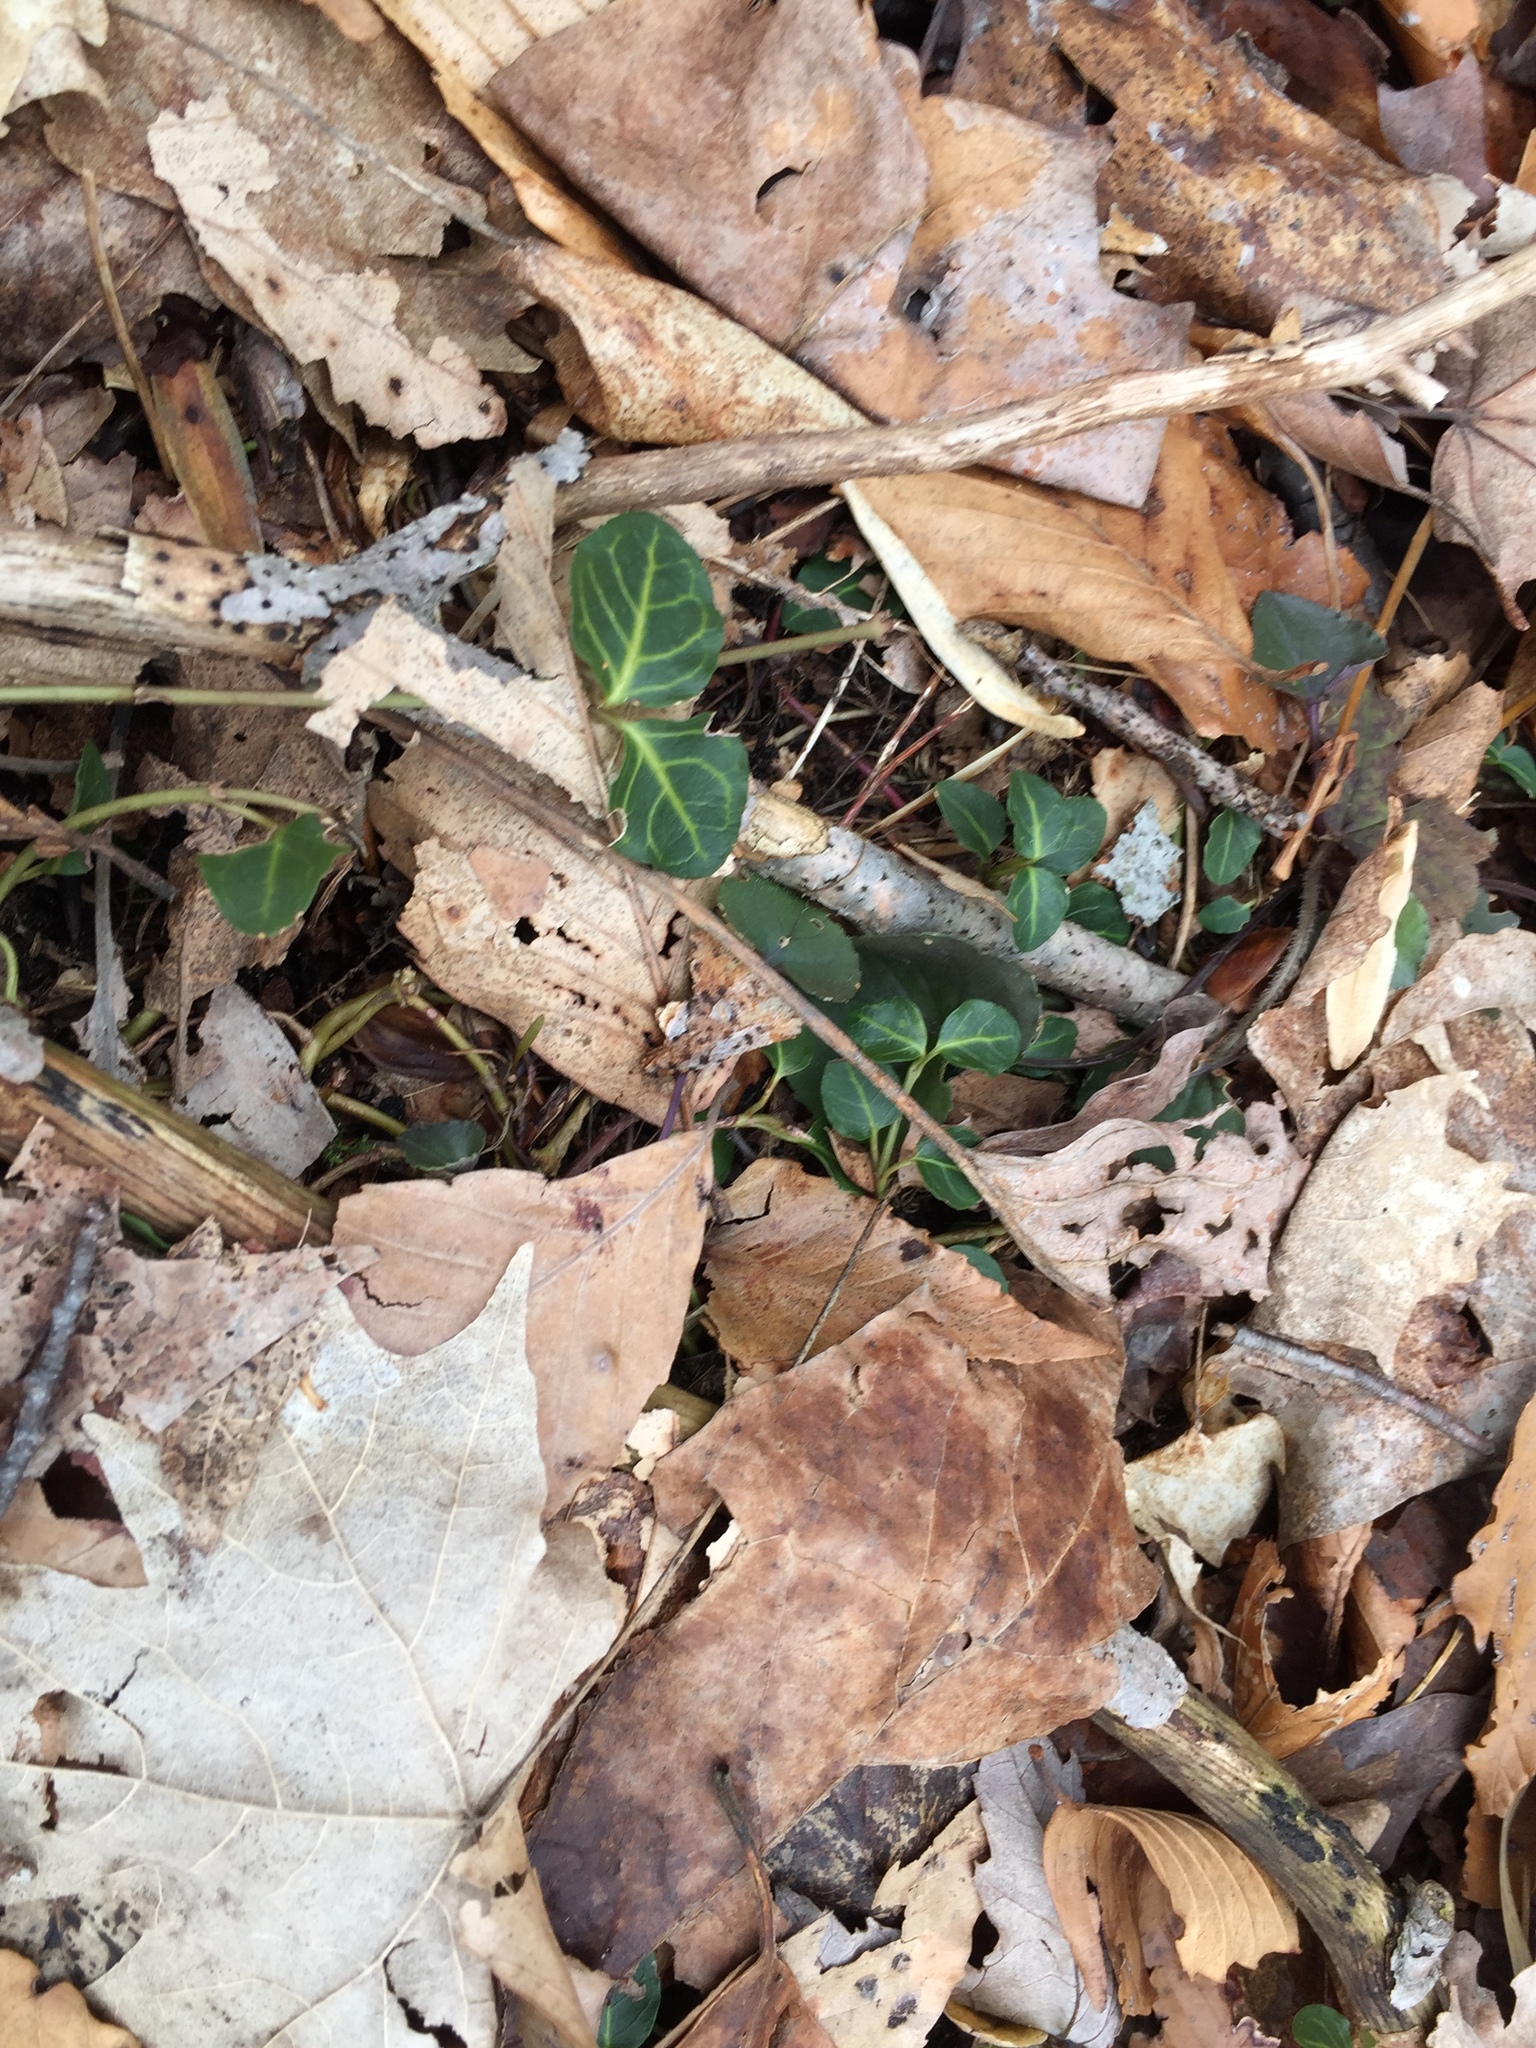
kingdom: Plantae
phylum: Tracheophyta
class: Magnoliopsida
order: Gentianales
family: Rubiaceae
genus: Mitchella
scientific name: Mitchella repens
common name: Partridge-berry
